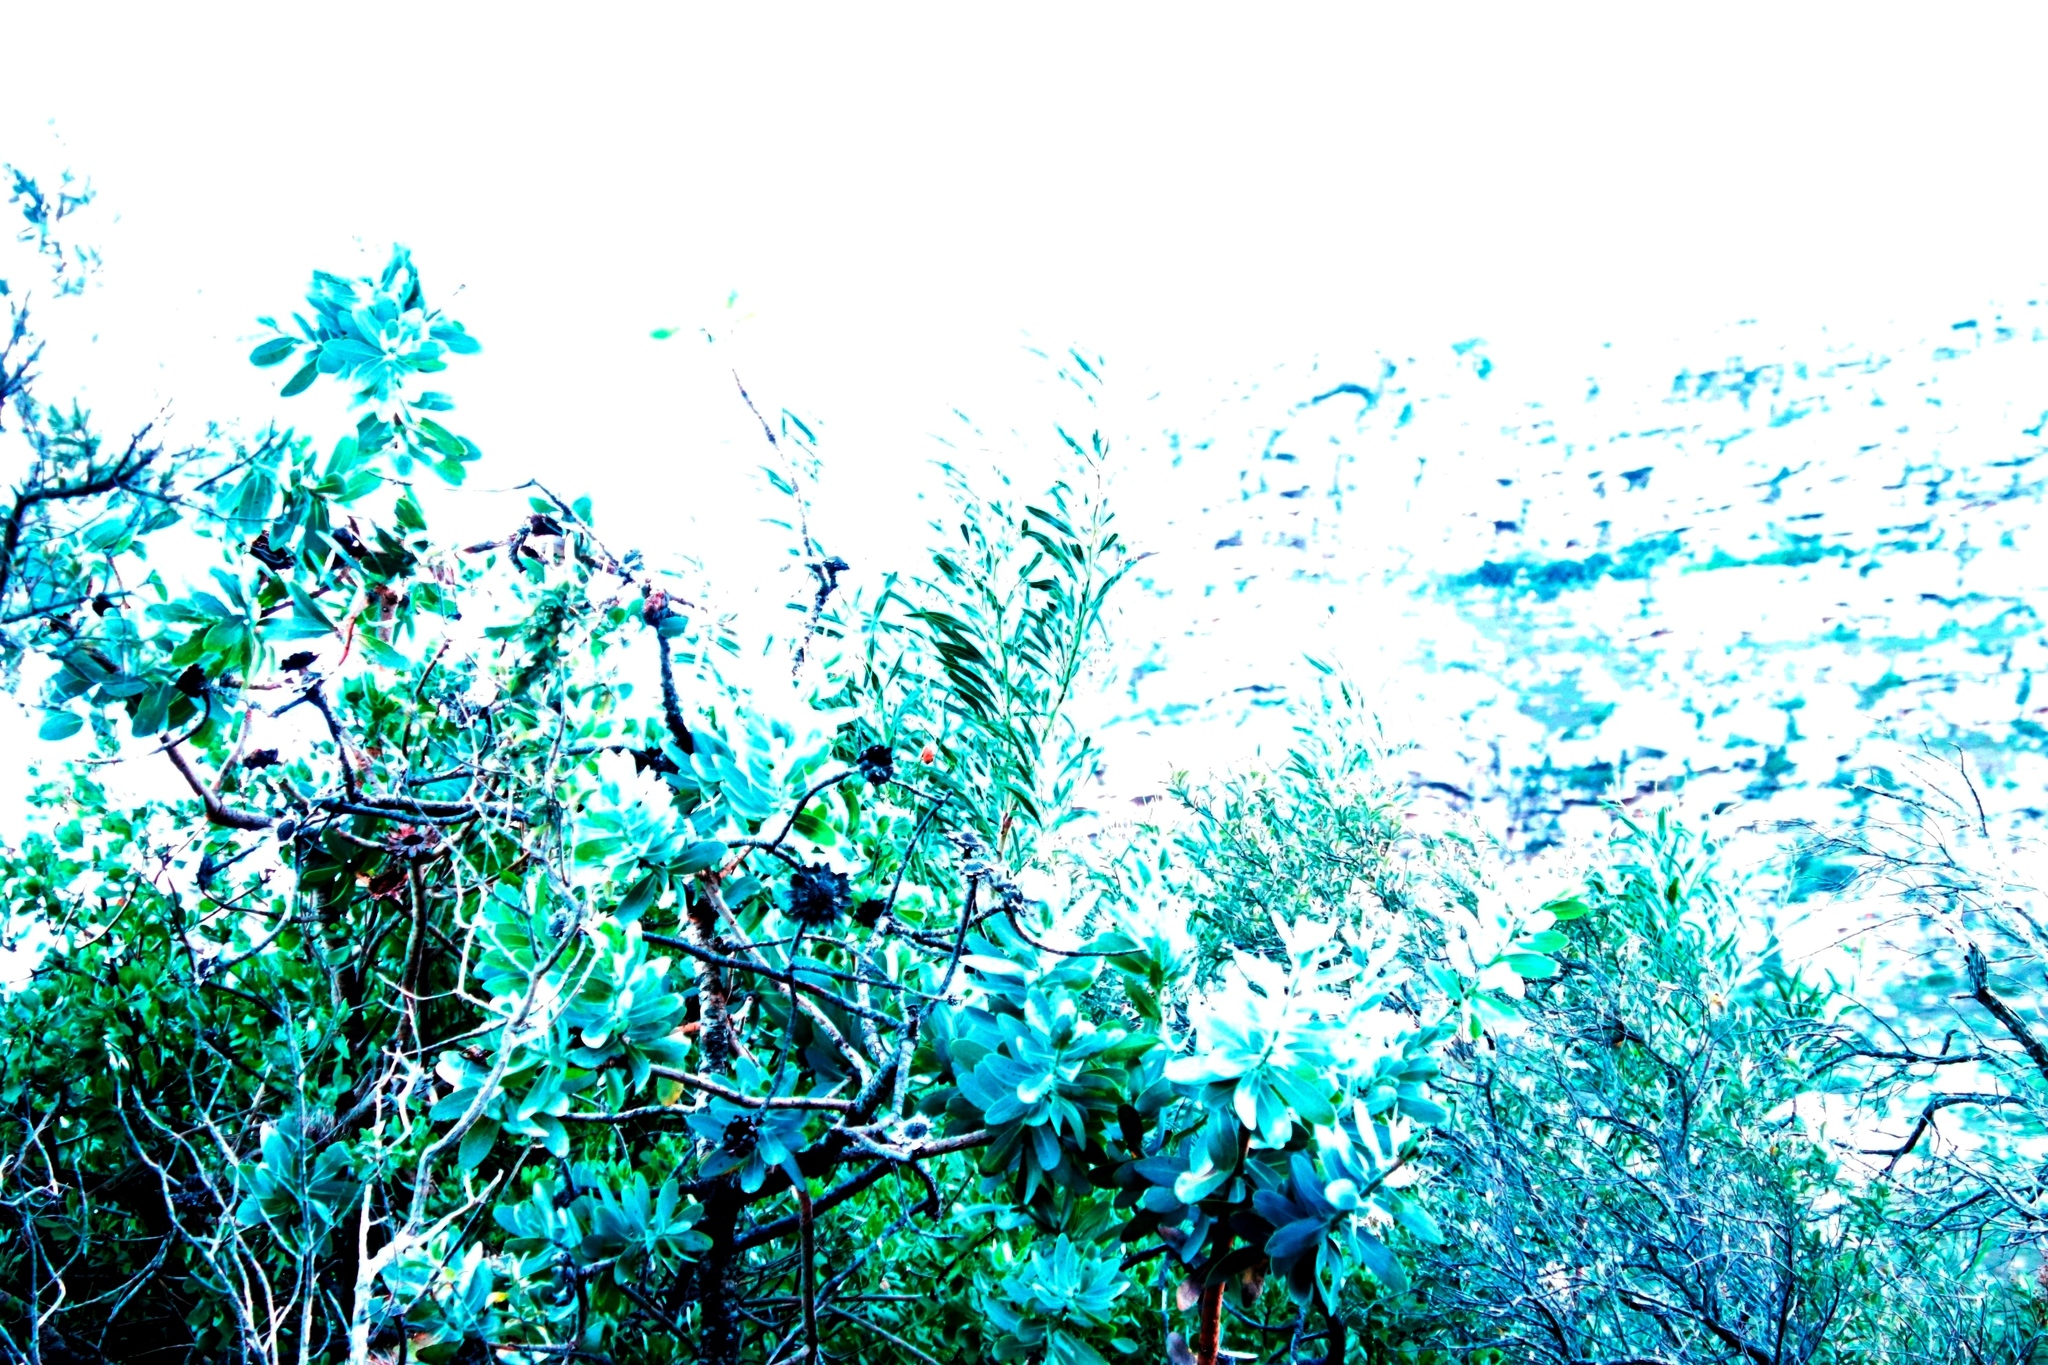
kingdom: Plantae
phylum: Tracheophyta
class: Magnoliopsida
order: Fabales
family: Fabaceae
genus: Acacia
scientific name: Acacia saligna
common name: Orange wattle
